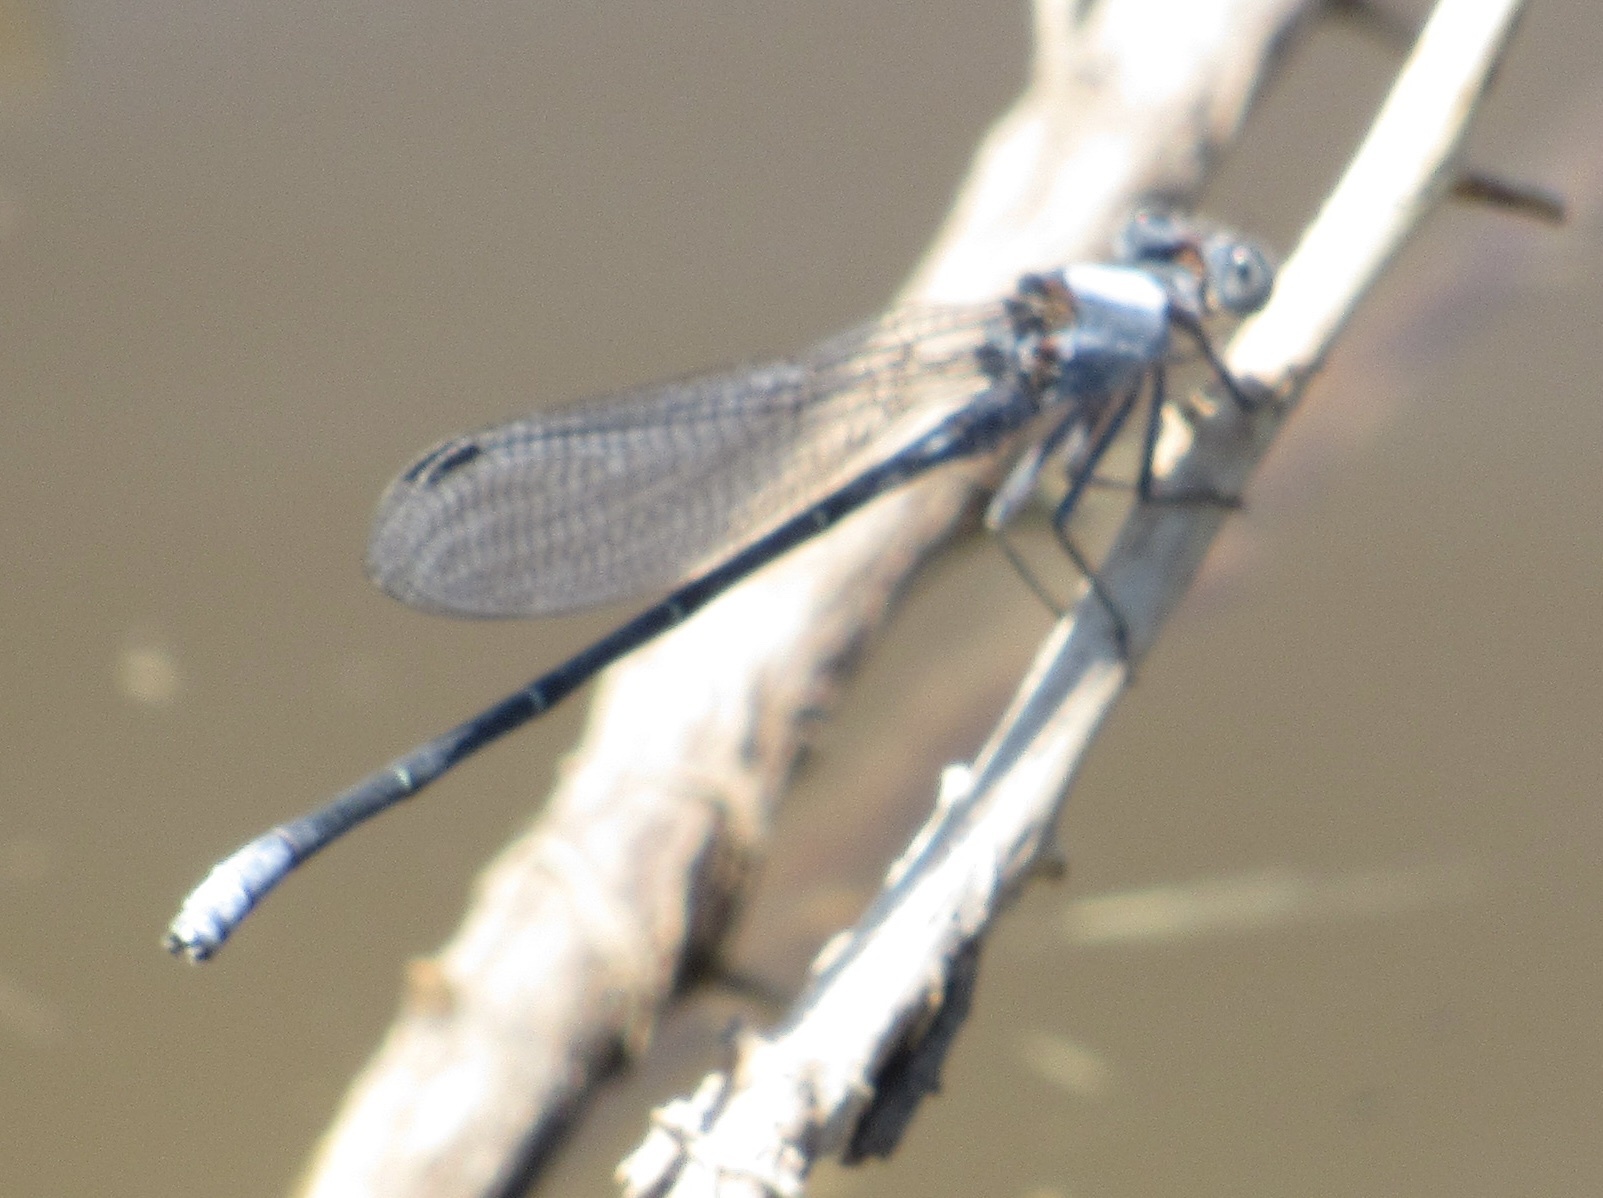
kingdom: Animalia
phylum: Arthropoda
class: Insecta
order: Odonata
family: Coenagrionidae
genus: Argia
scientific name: Argia moesta
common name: Powdered dancer
